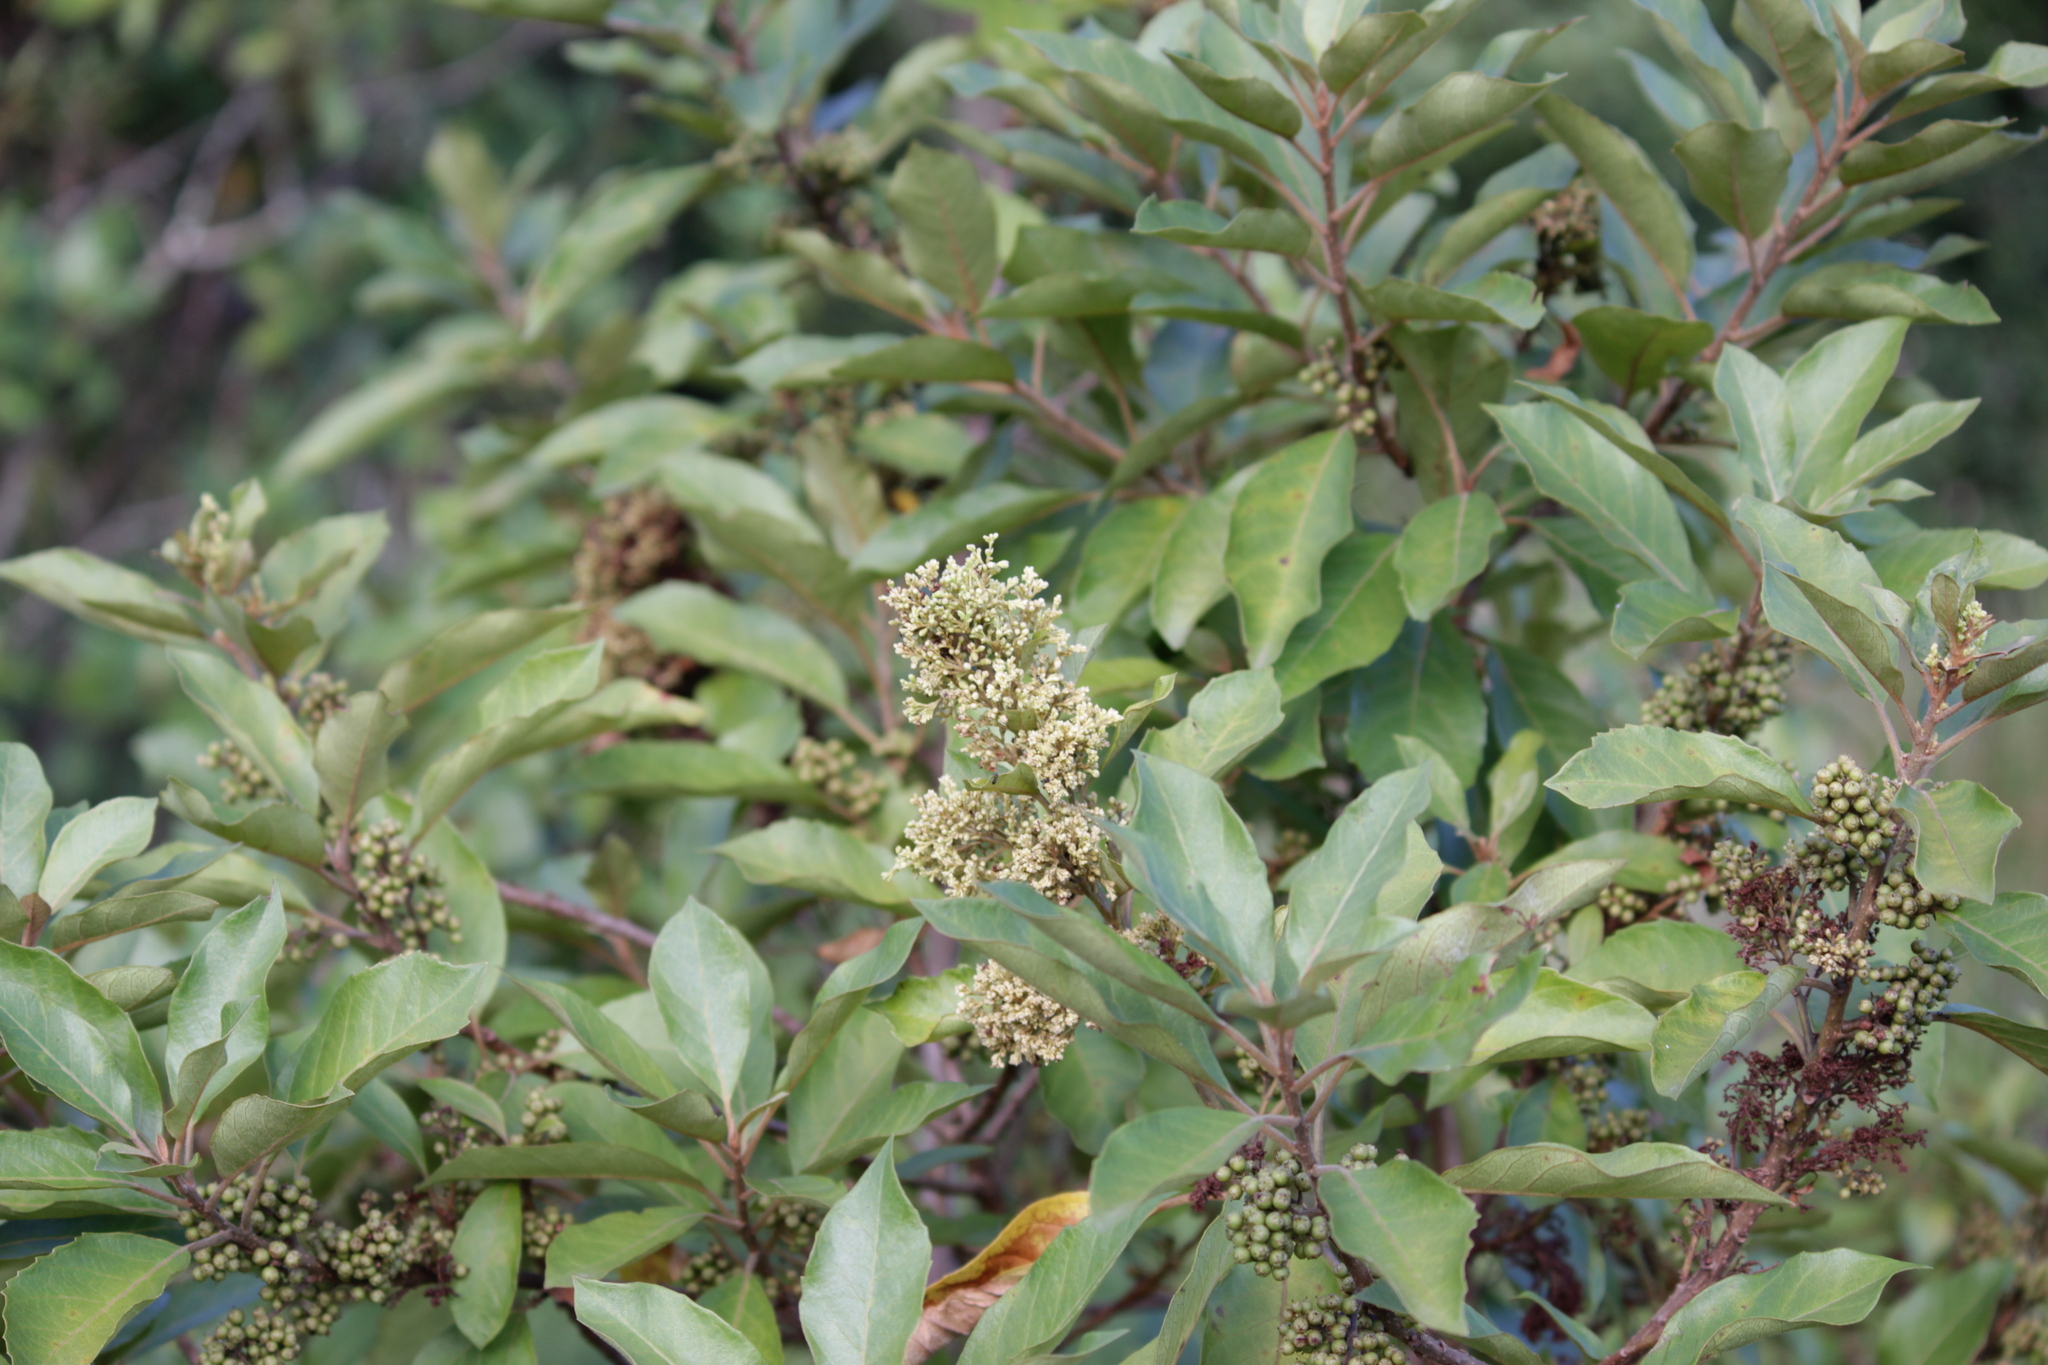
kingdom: Plantae
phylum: Tracheophyta
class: Magnoliopsida
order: Ericales
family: Primulaceae
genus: Maesa
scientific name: Maesa lanceolata
